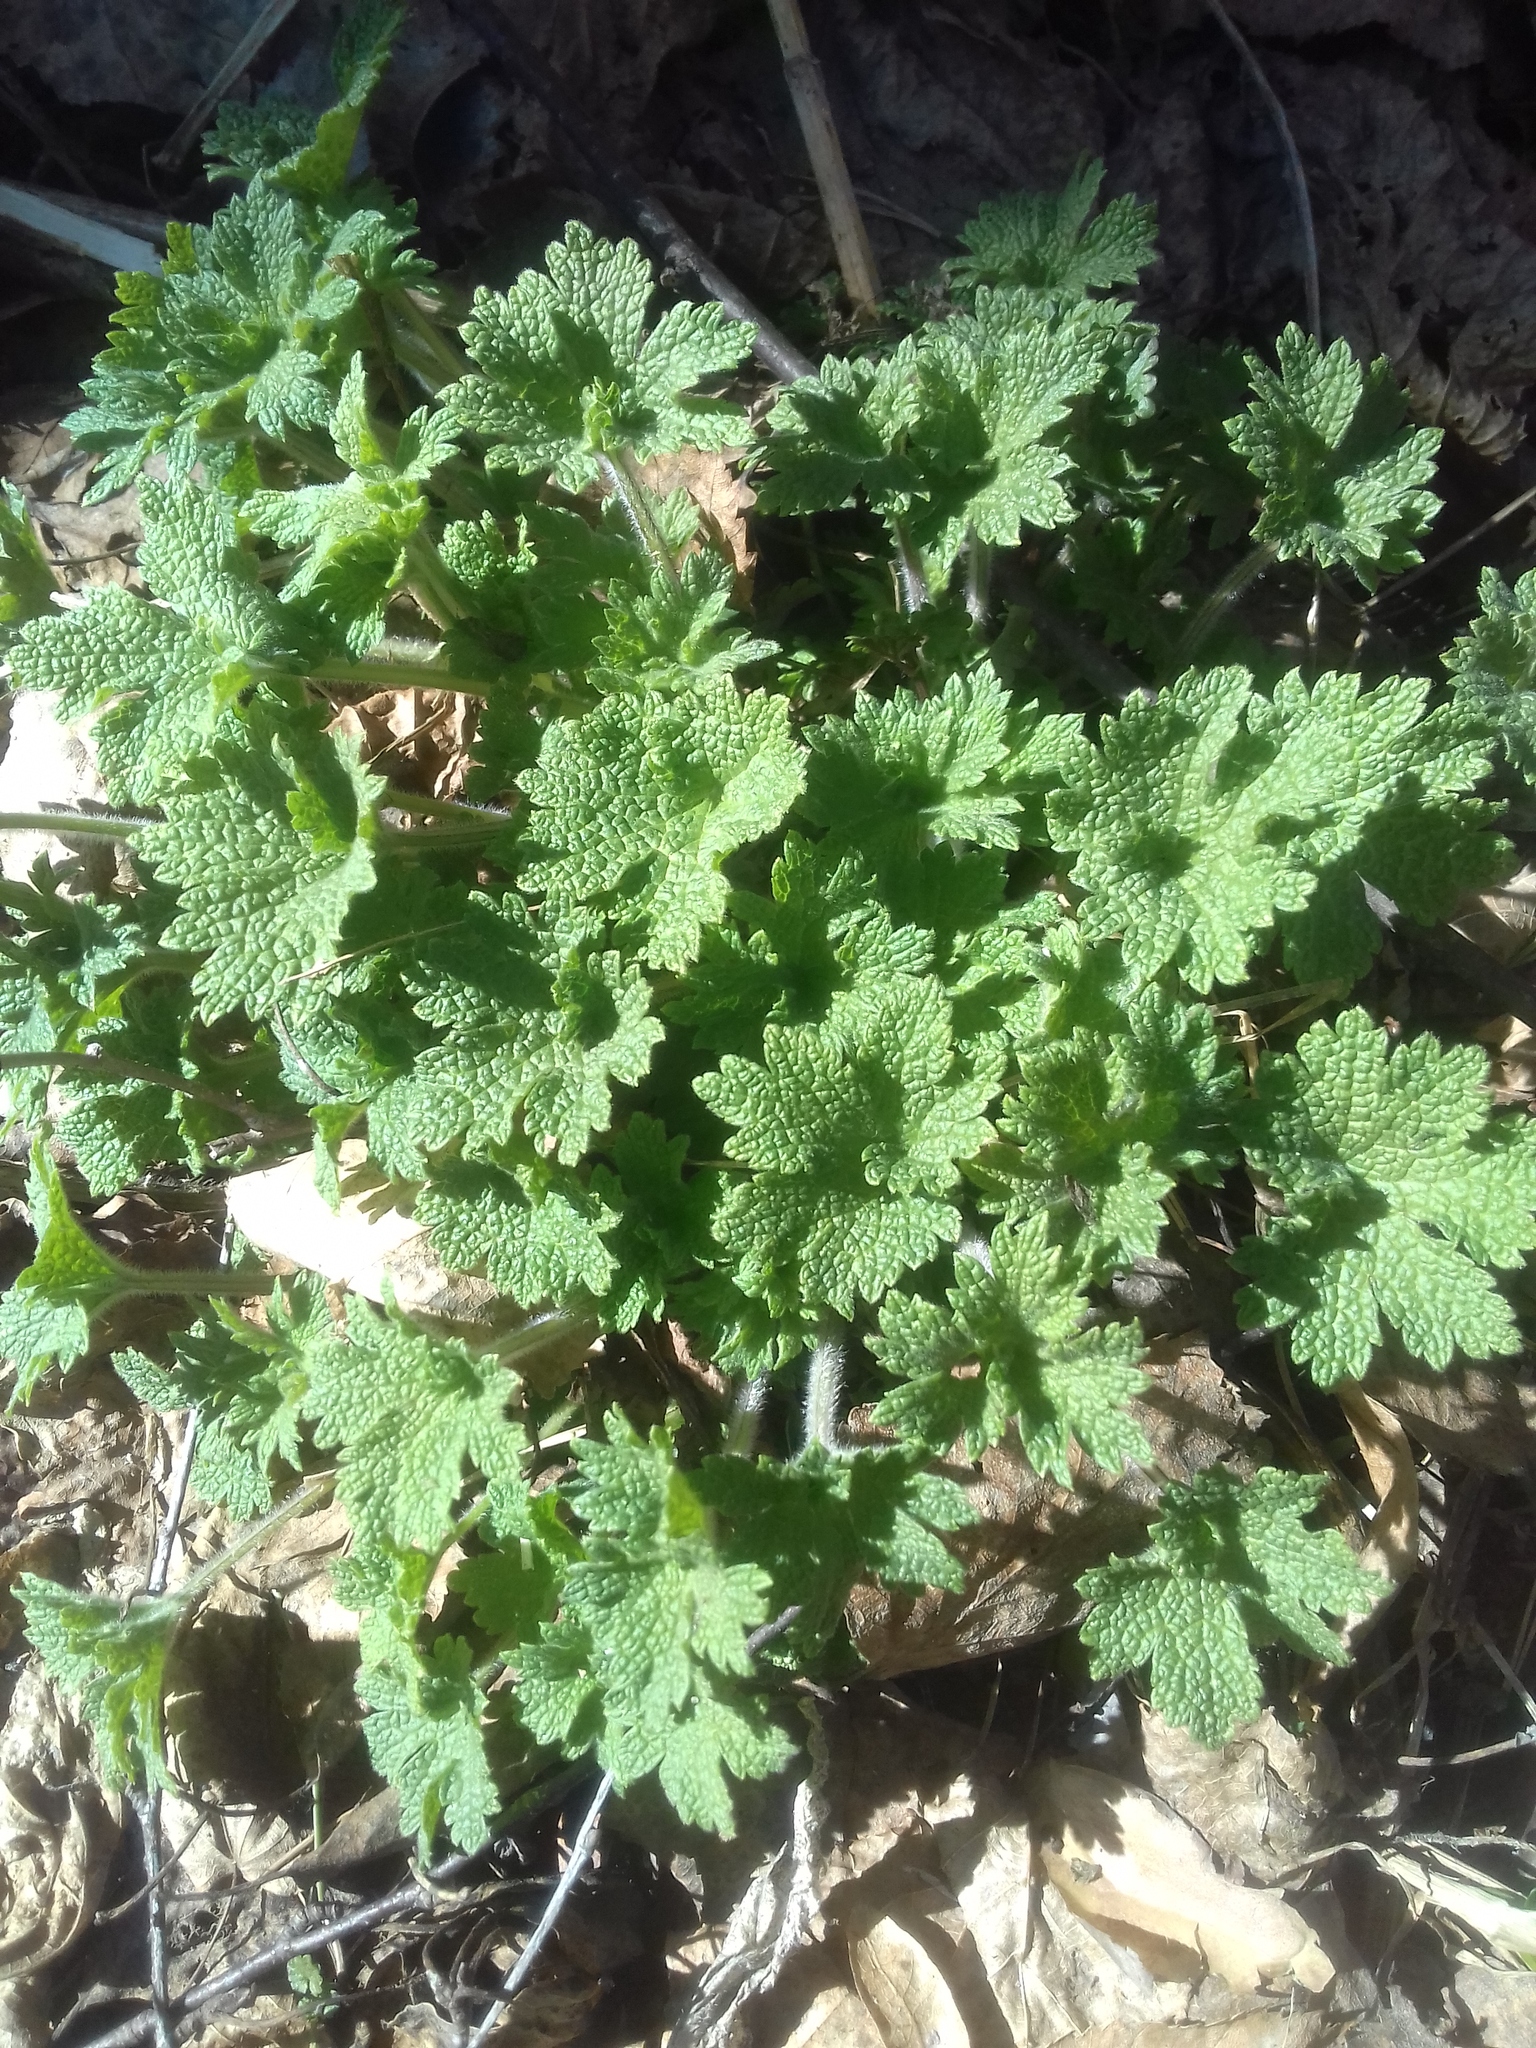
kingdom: Plantae
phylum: Tracheophyta
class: Magnoliopsida
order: Lamiales
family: Lamiaceae
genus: Leonurus
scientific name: Leonurus quinquelobatus
